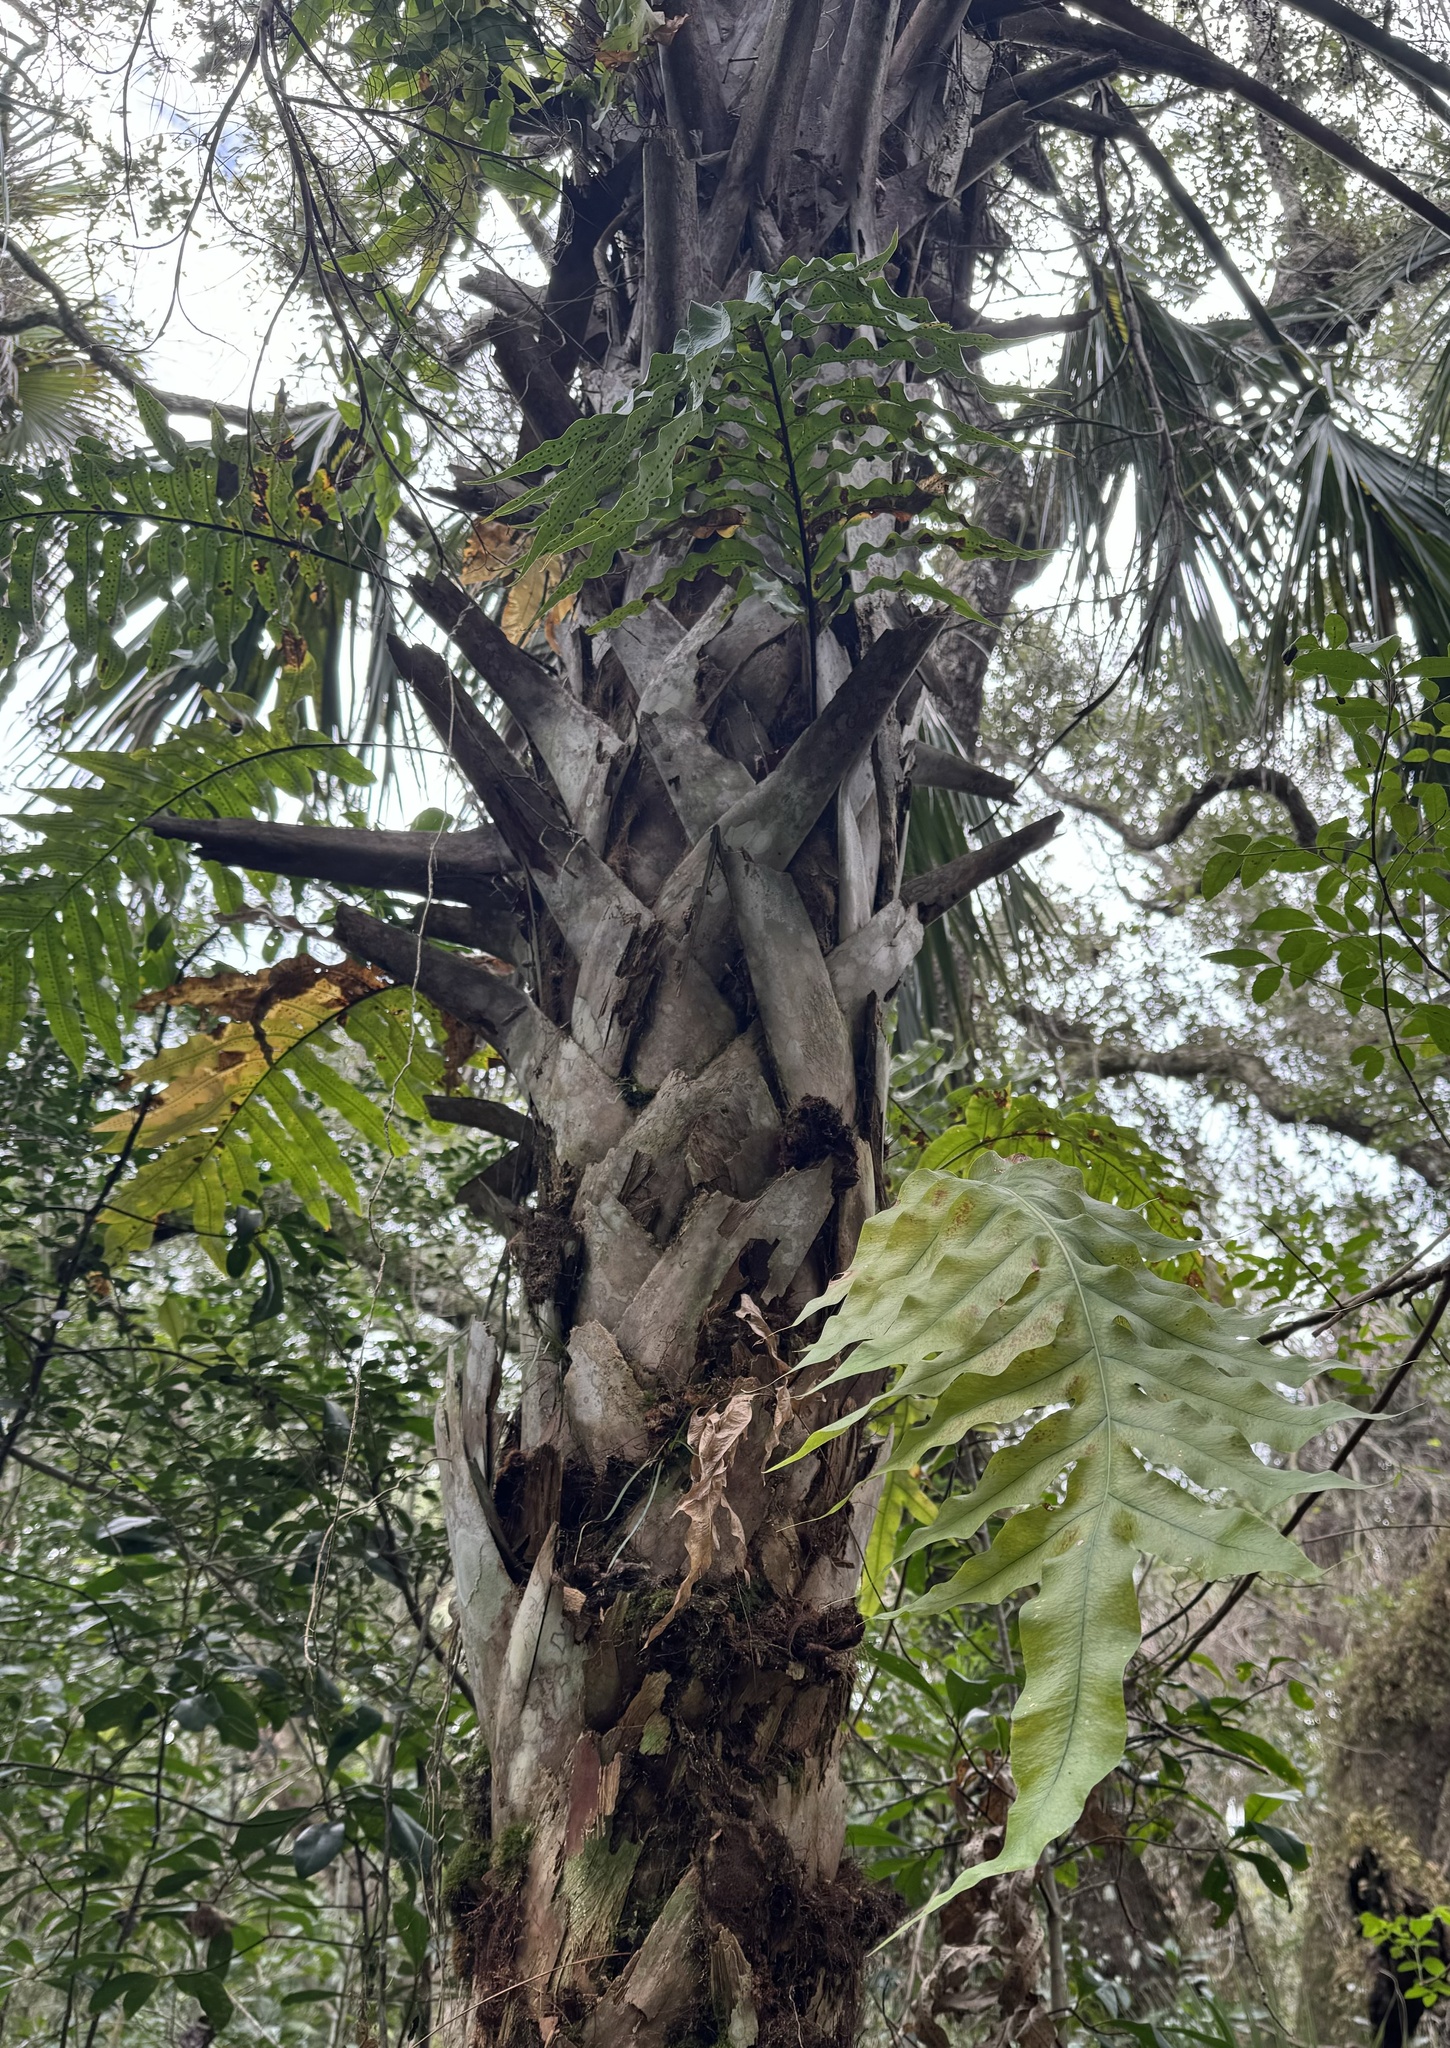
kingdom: Plantae
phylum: Tracheophyta
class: Polypodiopsida
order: Polypodiales
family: Polypodiaceae
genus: Phlebodium
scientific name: Phlebodium aureum
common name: Gold-foot fern
